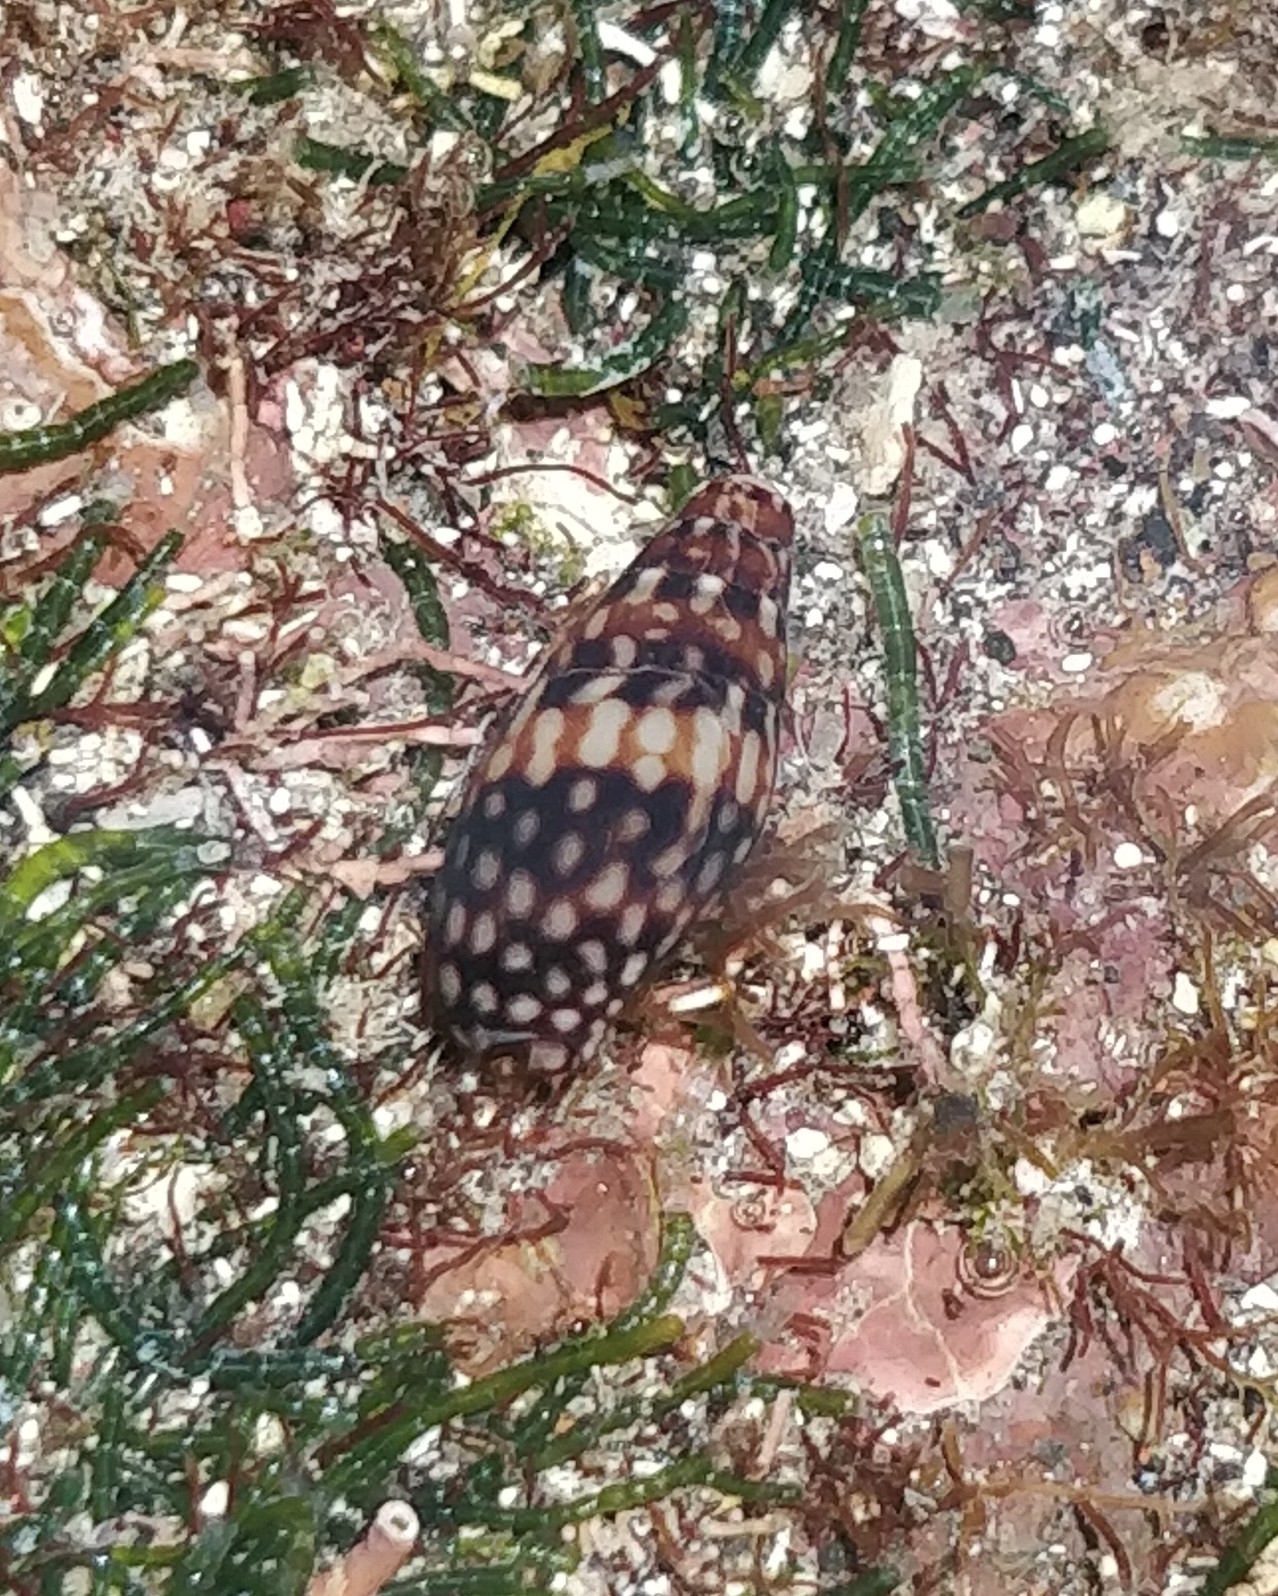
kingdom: Animalia
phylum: Mollusca
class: Gastropoda
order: Neogastropoda
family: Columbellidae
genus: Mitrella
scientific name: Mitrella ocellata
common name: White-spot dovesnail
